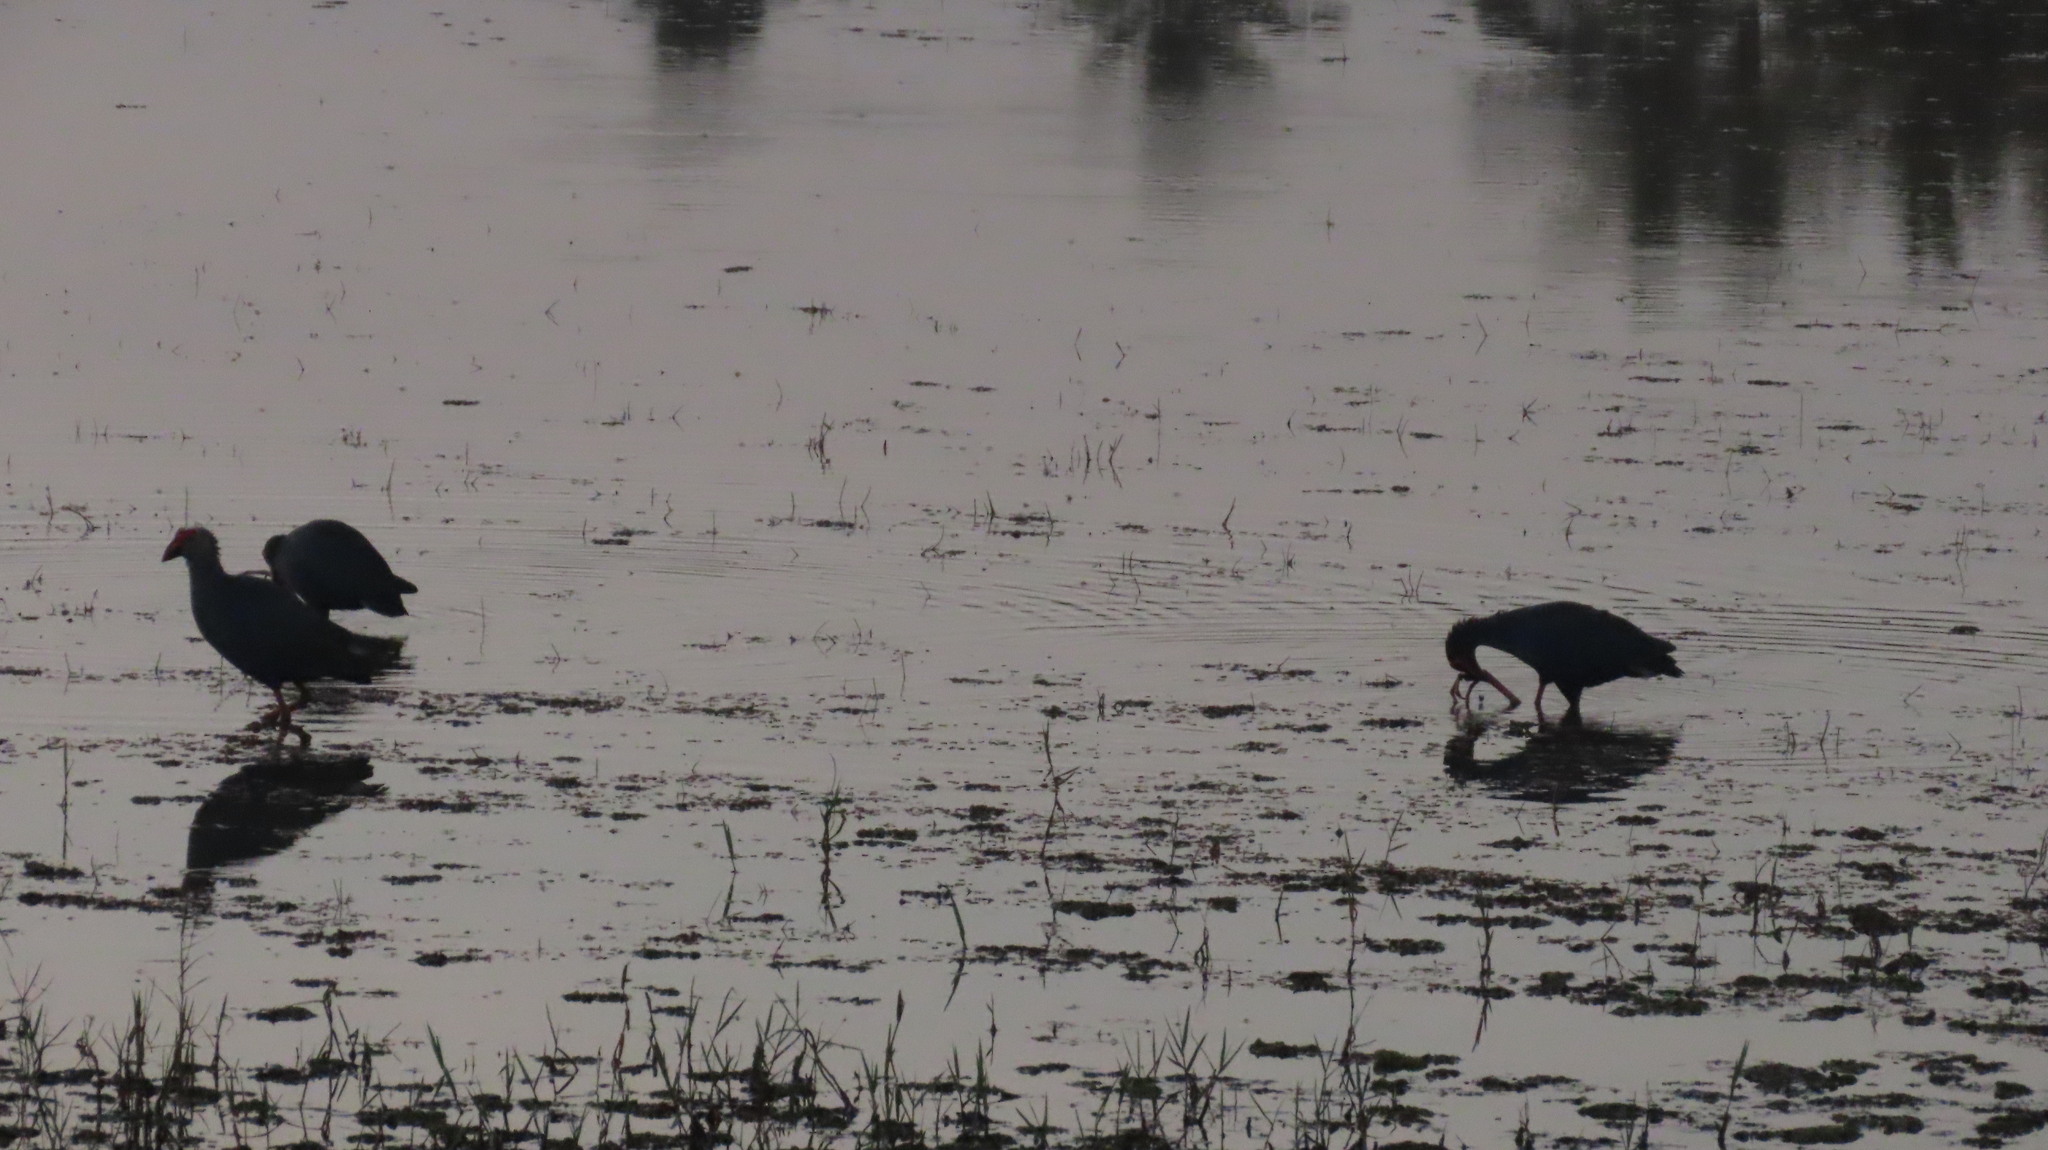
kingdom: Animalia
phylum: Chordata
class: Aves
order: Gruiformes
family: Rallidae
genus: Porphyrio
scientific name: Porphyrio porphyrio
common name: Purple swamphen
